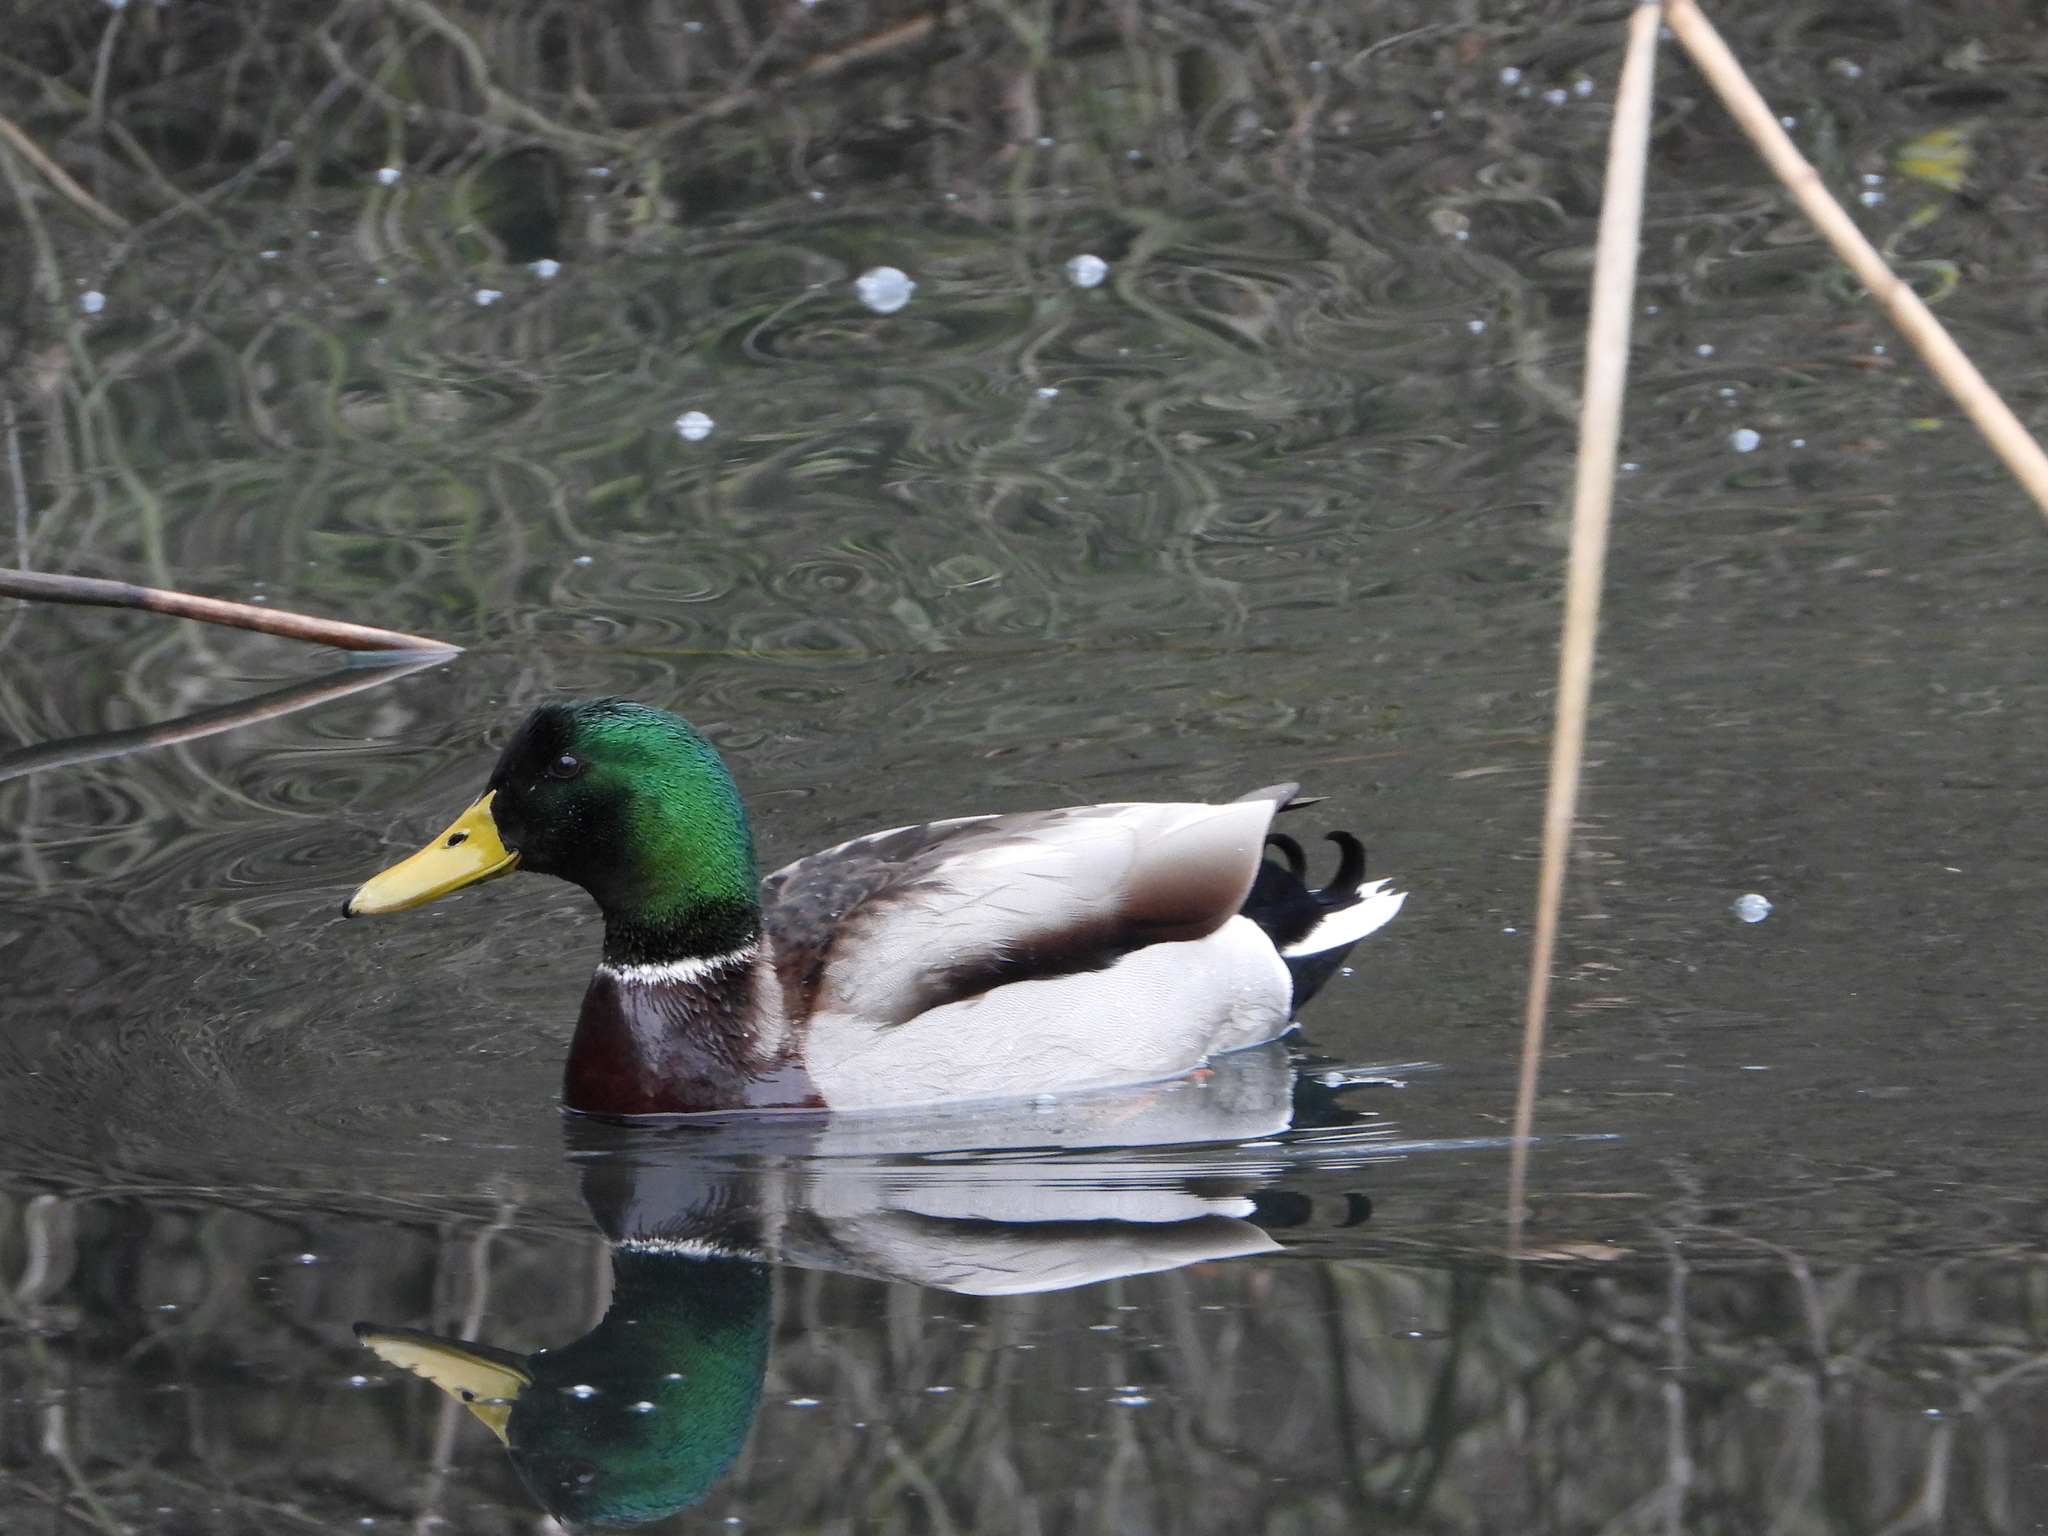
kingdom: Animalia
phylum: Chordata
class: Aves
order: Anseriformes
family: Anatidae
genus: Anas
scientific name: Anas platyrhynchos
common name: Mallard
